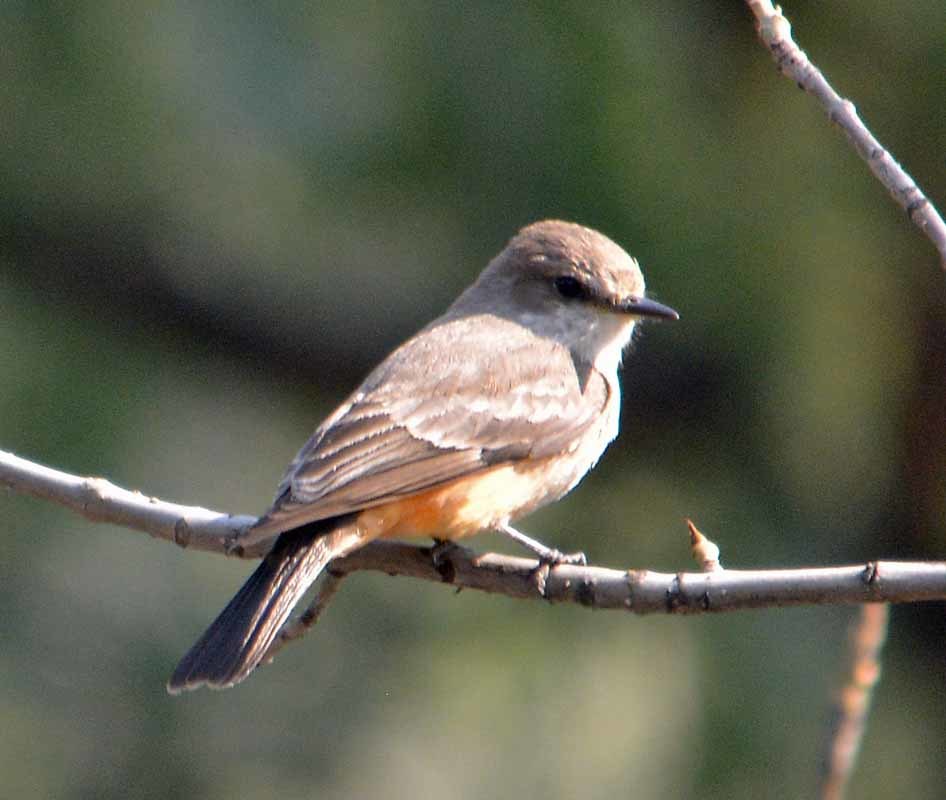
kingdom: Animalia
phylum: Chordata
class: Aves
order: Passeriformes
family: Tyrannidae
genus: Pyrocephalus
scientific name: Pyrocephalus rubinus
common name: Vermilion flycatcher
